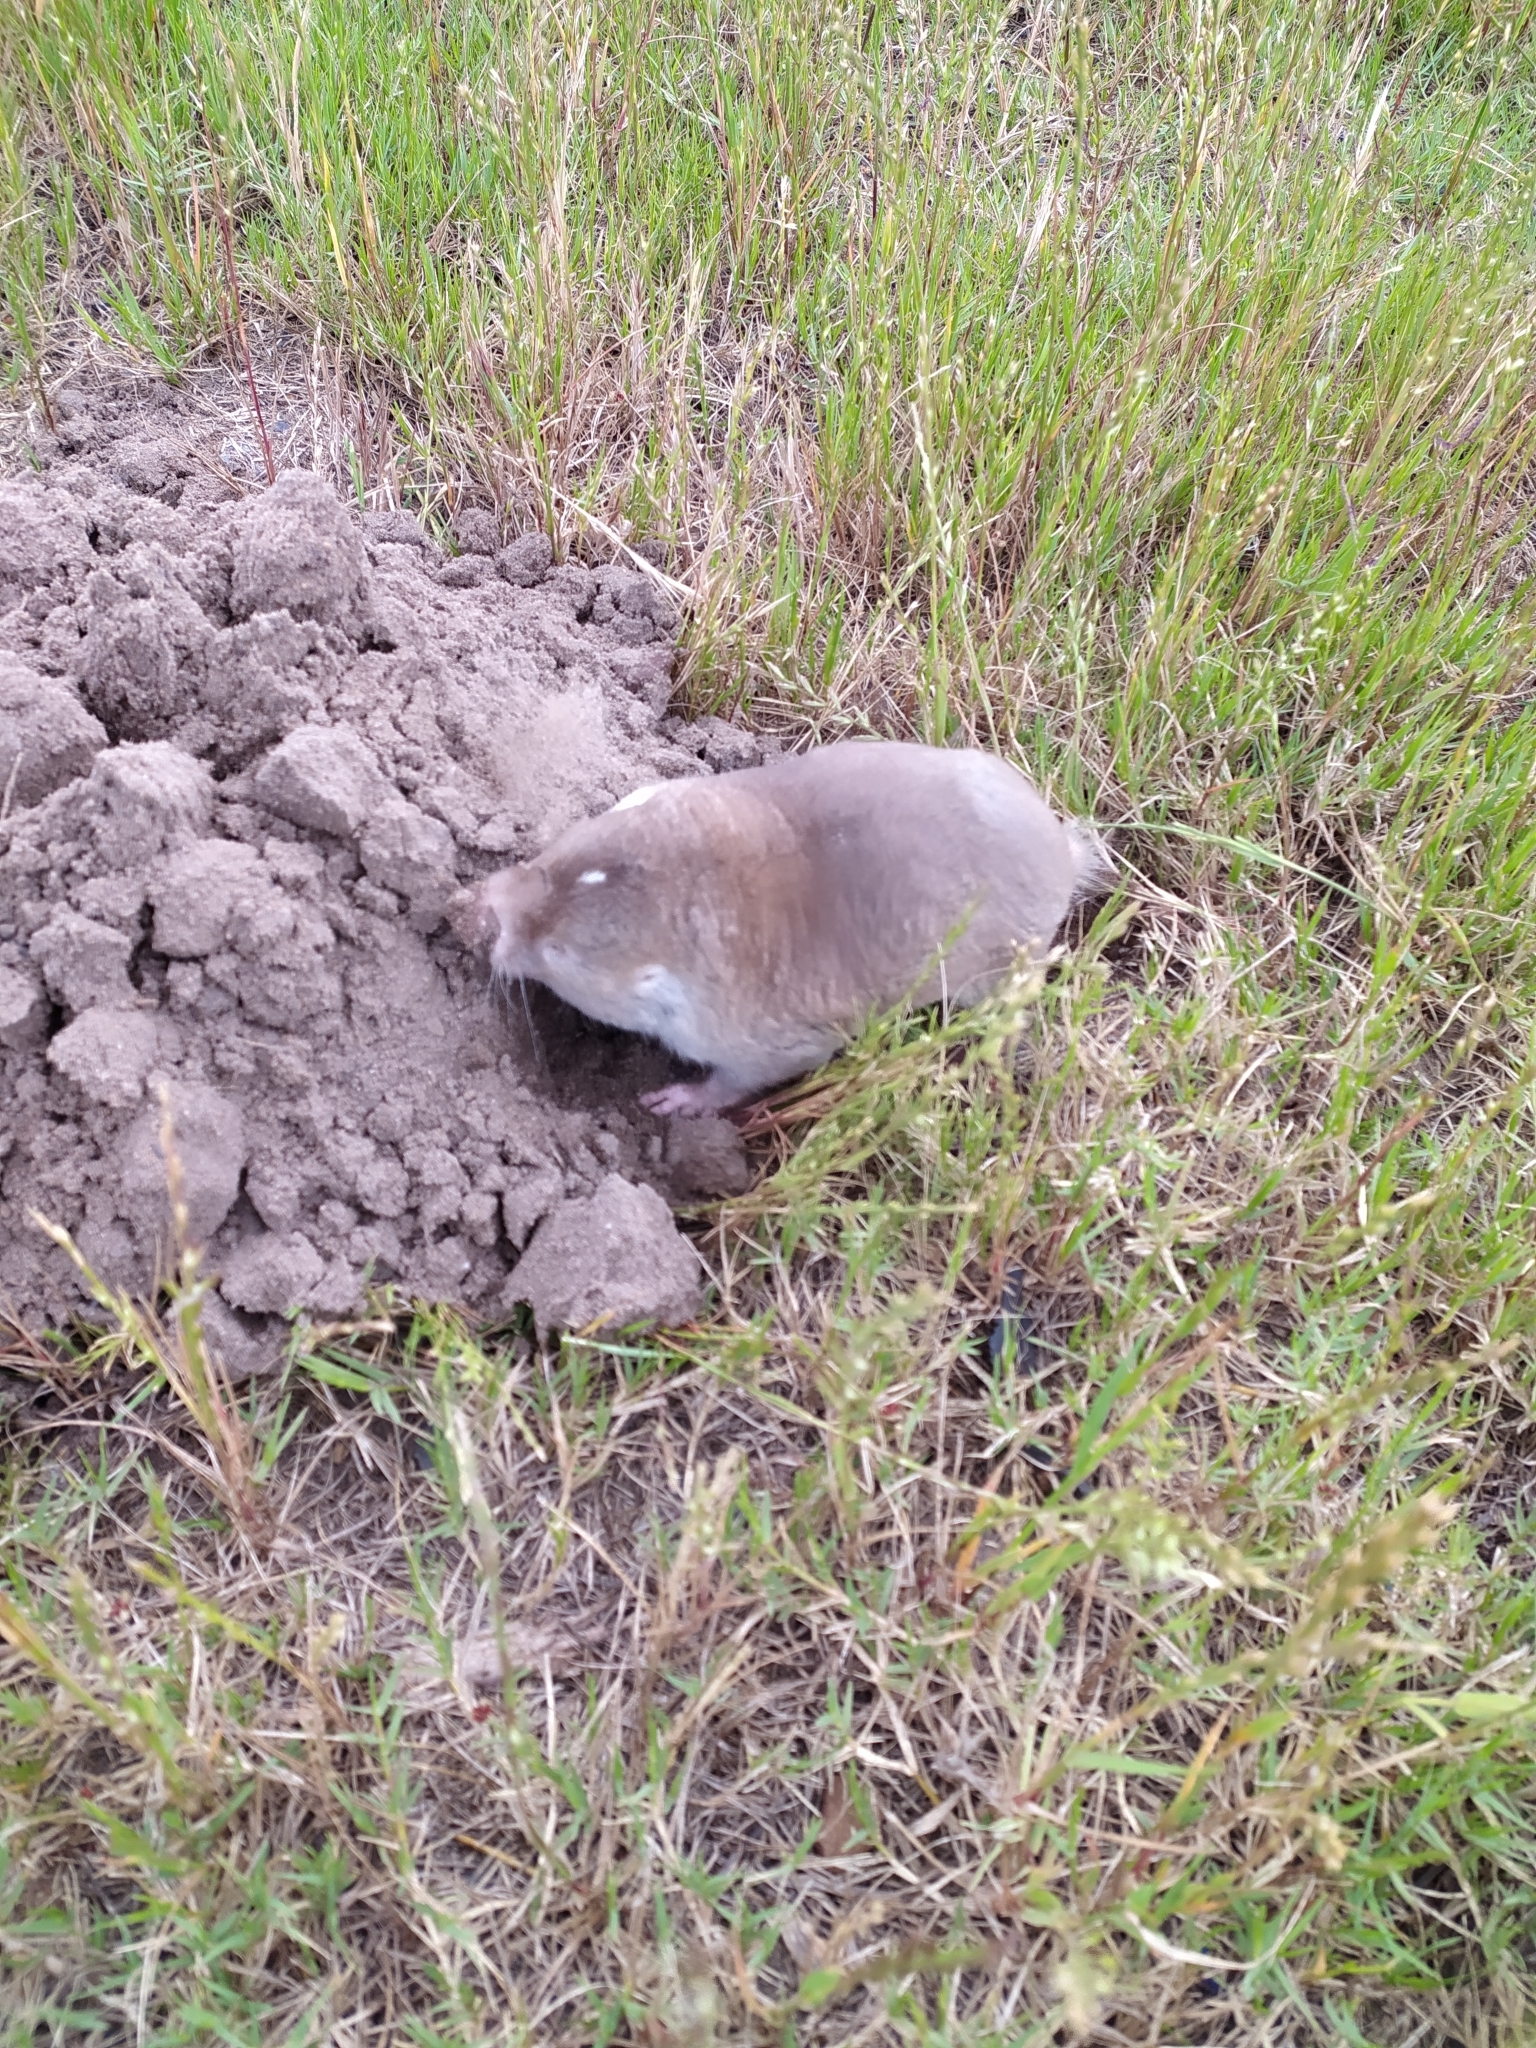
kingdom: Animalia
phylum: Chordata
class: Mammalia
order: Rodentia
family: Bathyergidae
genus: Bathyergus
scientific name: Bathyergus suillus
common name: Cape dune mole rat
